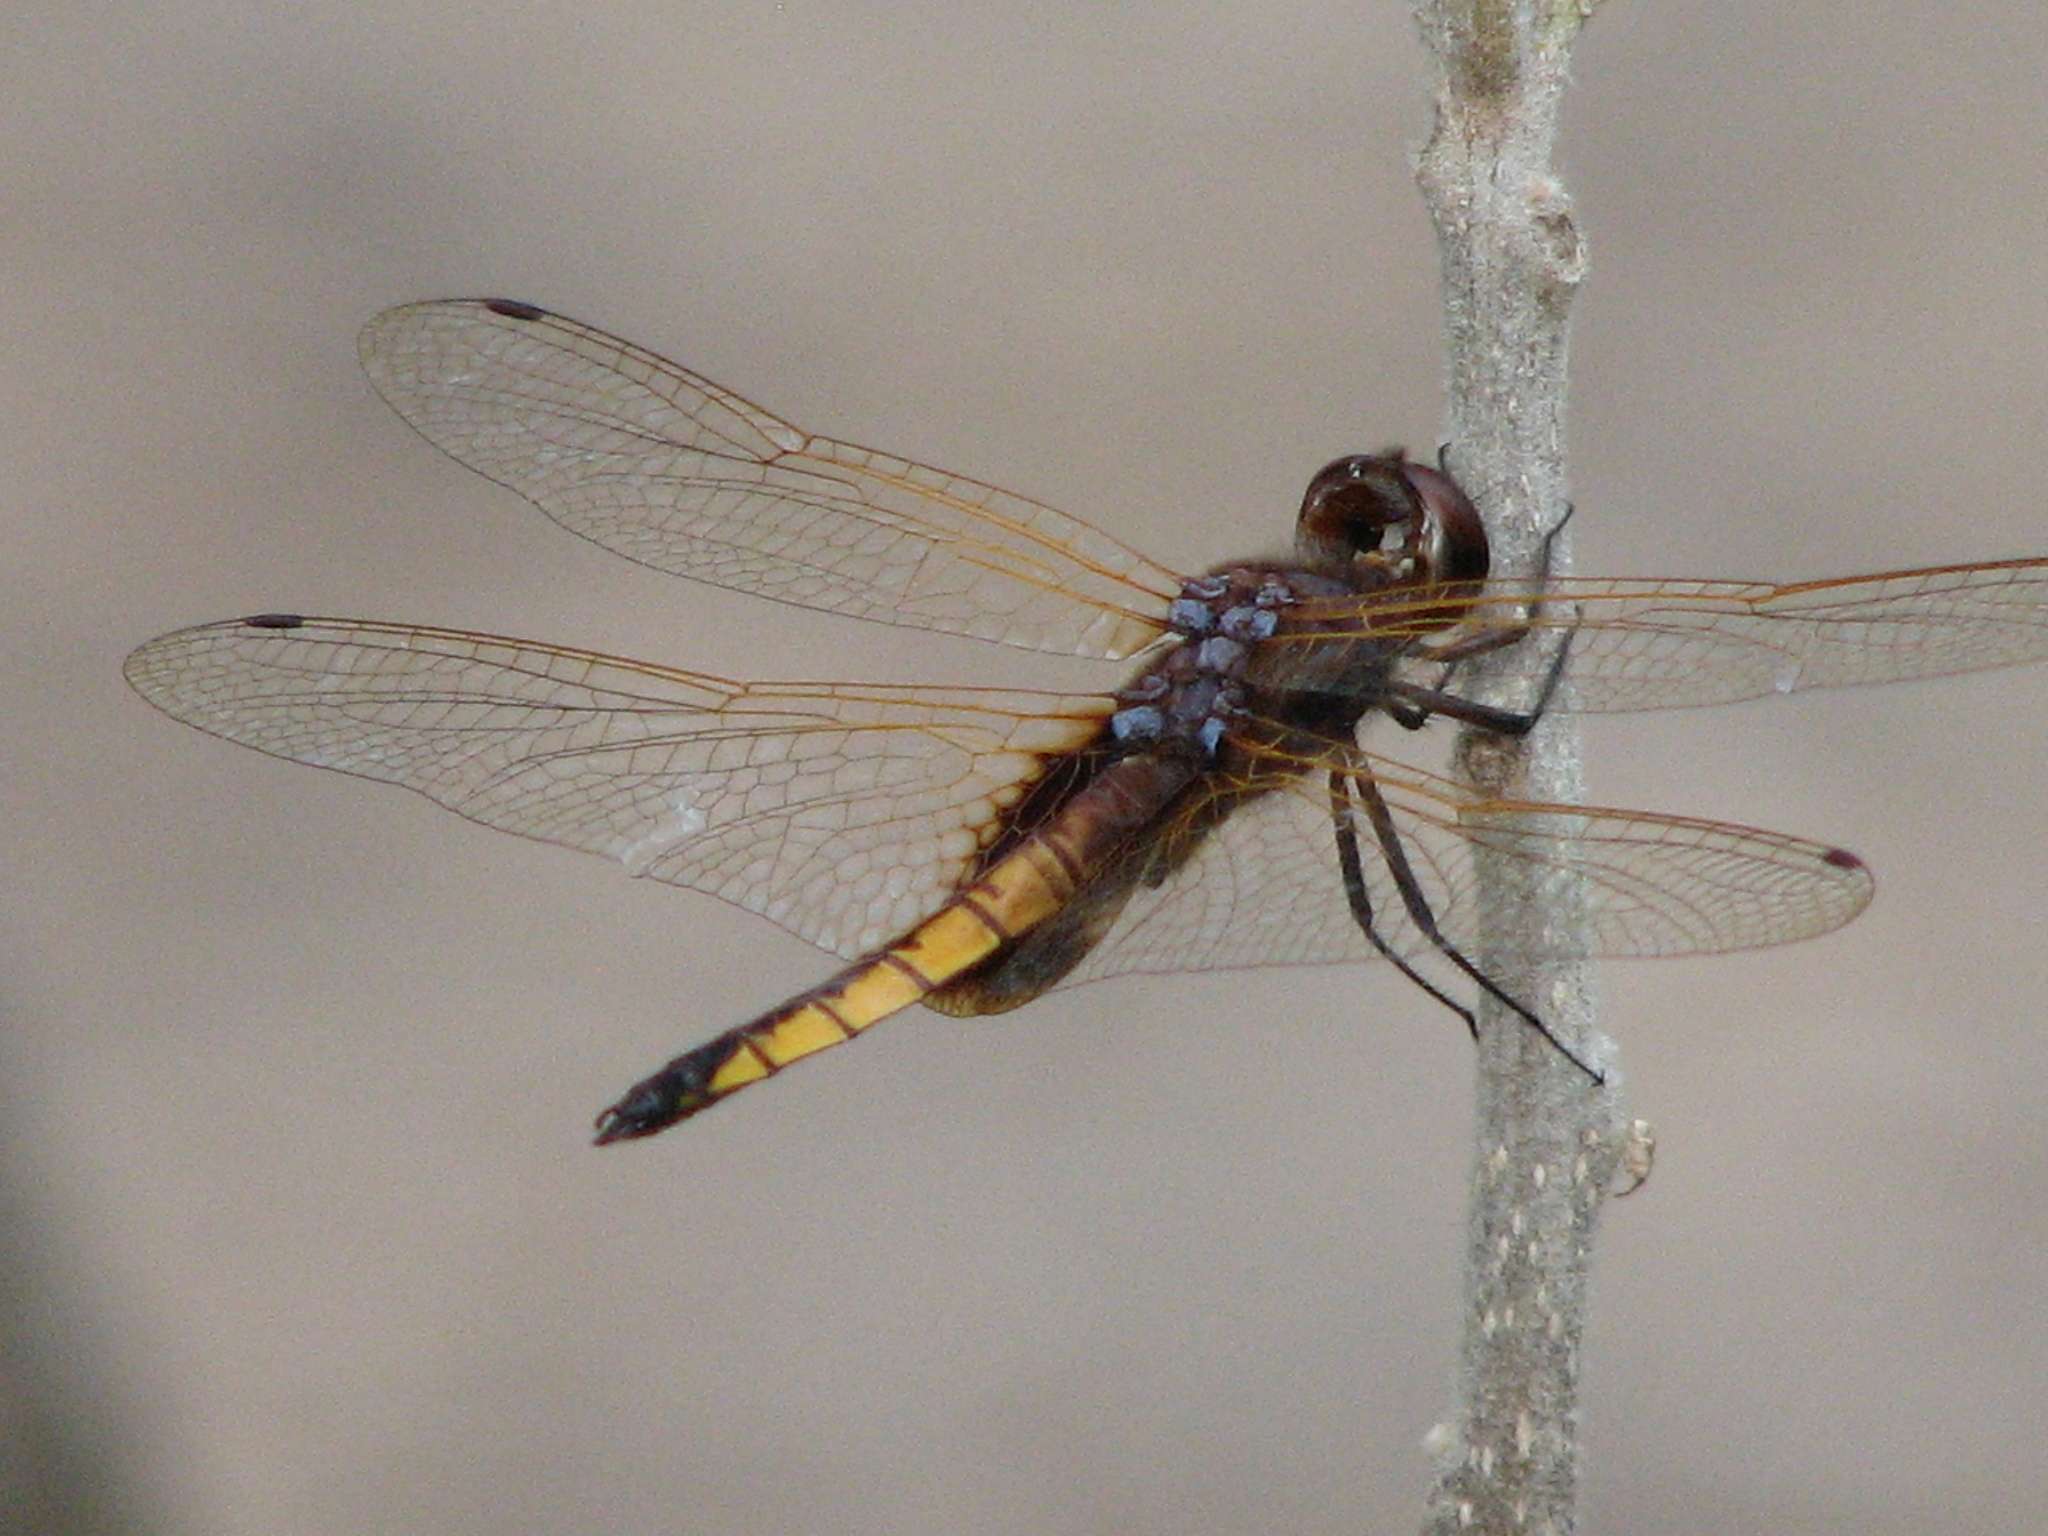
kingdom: Animalia
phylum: Arthropoda
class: Insecta
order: Odonata
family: Libellulidae
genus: Miathyria
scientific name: Miathyria marcella
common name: Hyacinth glider
